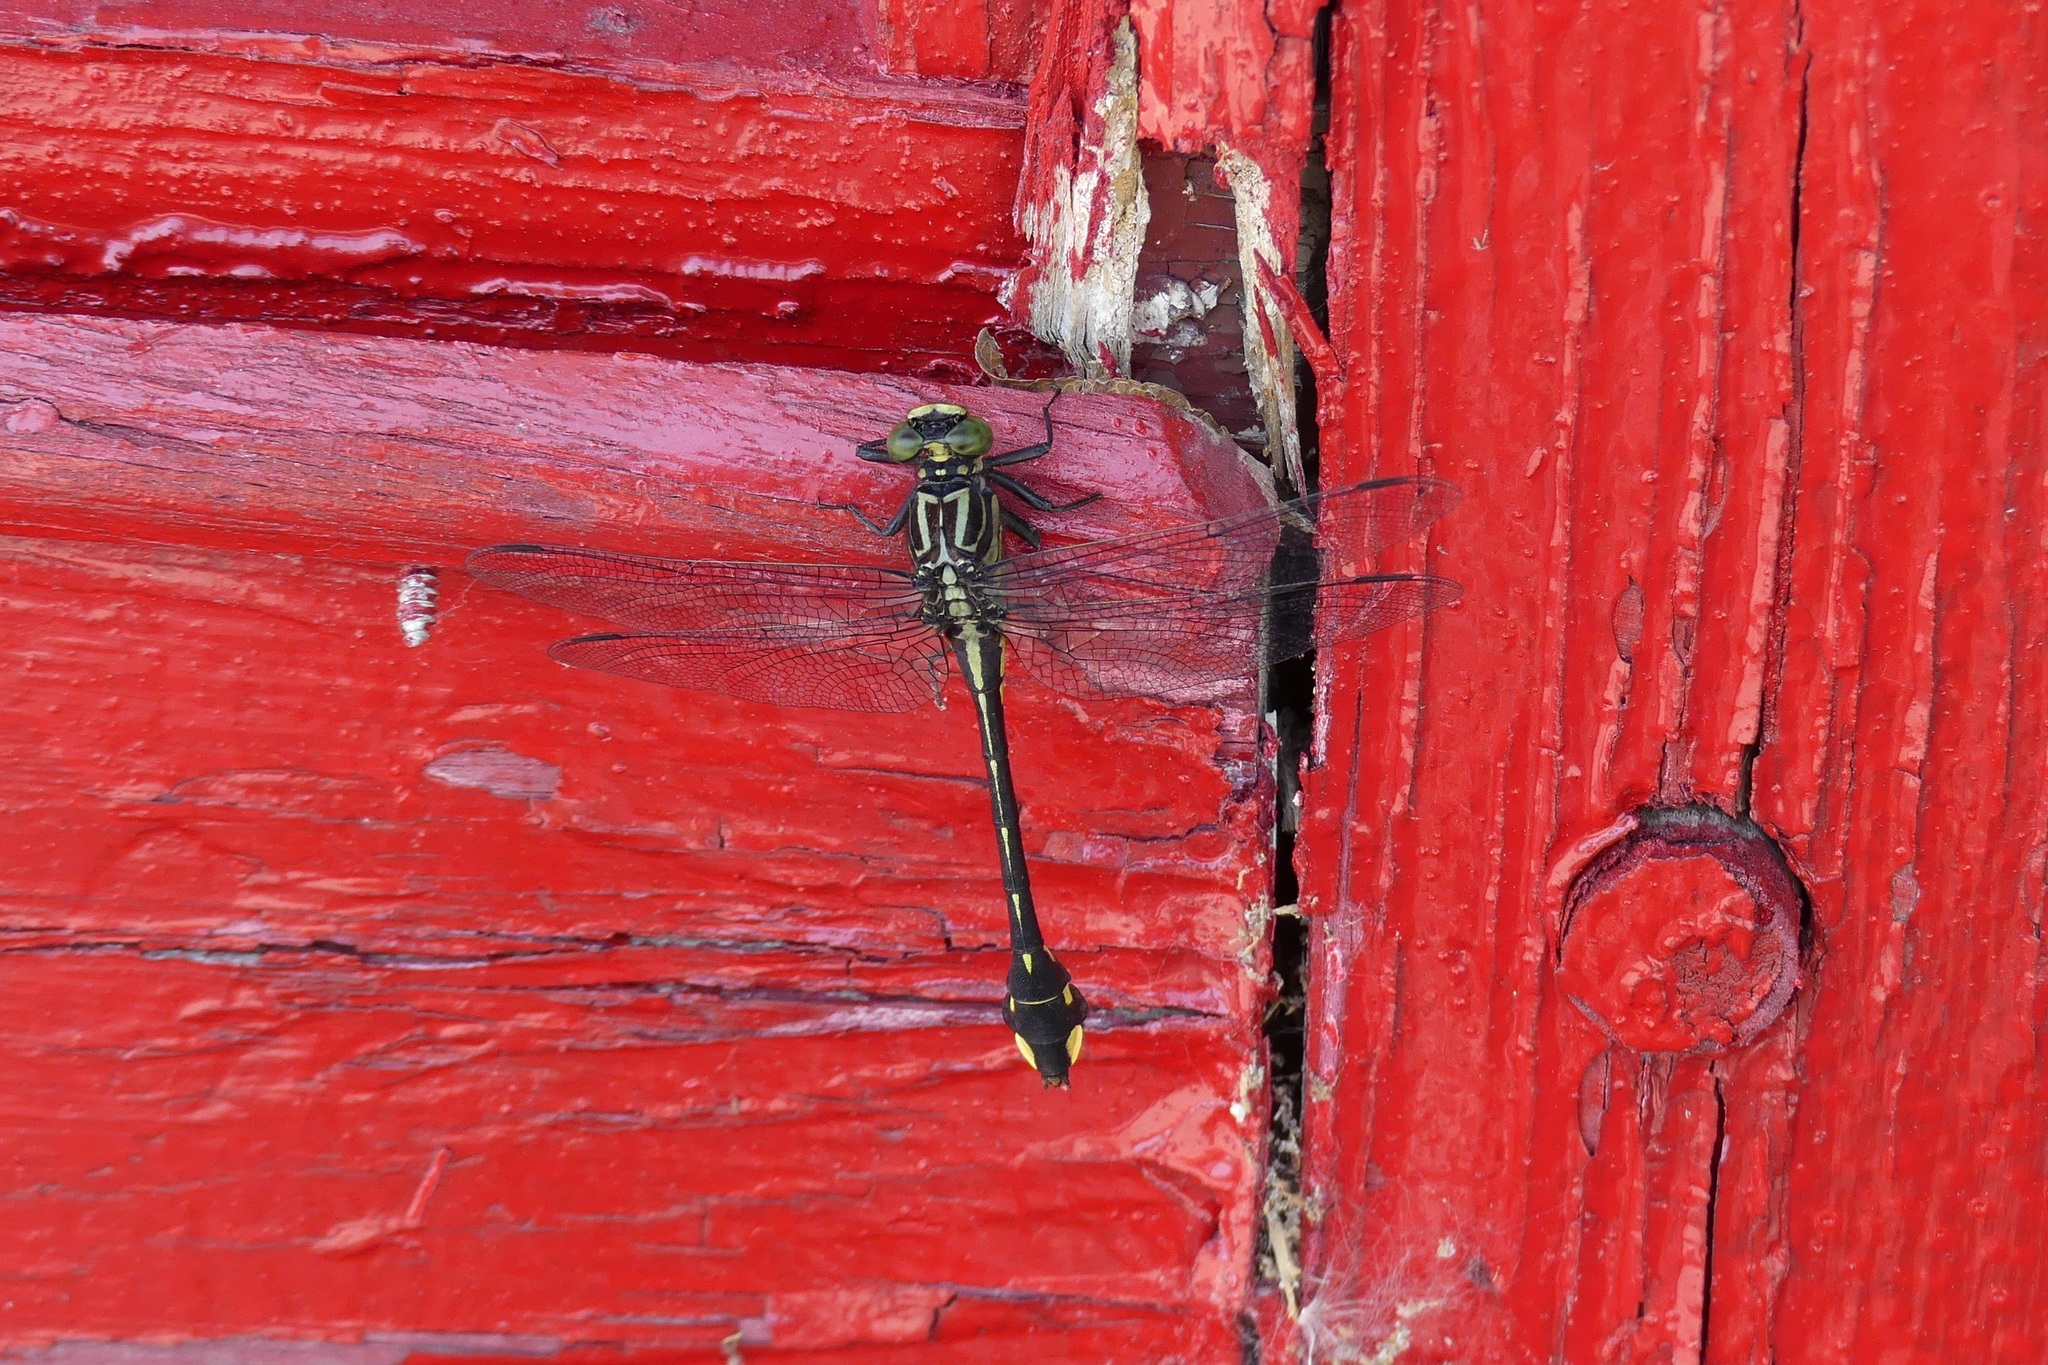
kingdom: Animalia
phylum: Arthropoda
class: Insecta
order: Odonata
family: Gomphidae
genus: Gomphurus
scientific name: Gomphurus vastus
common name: Cobra clubtail
